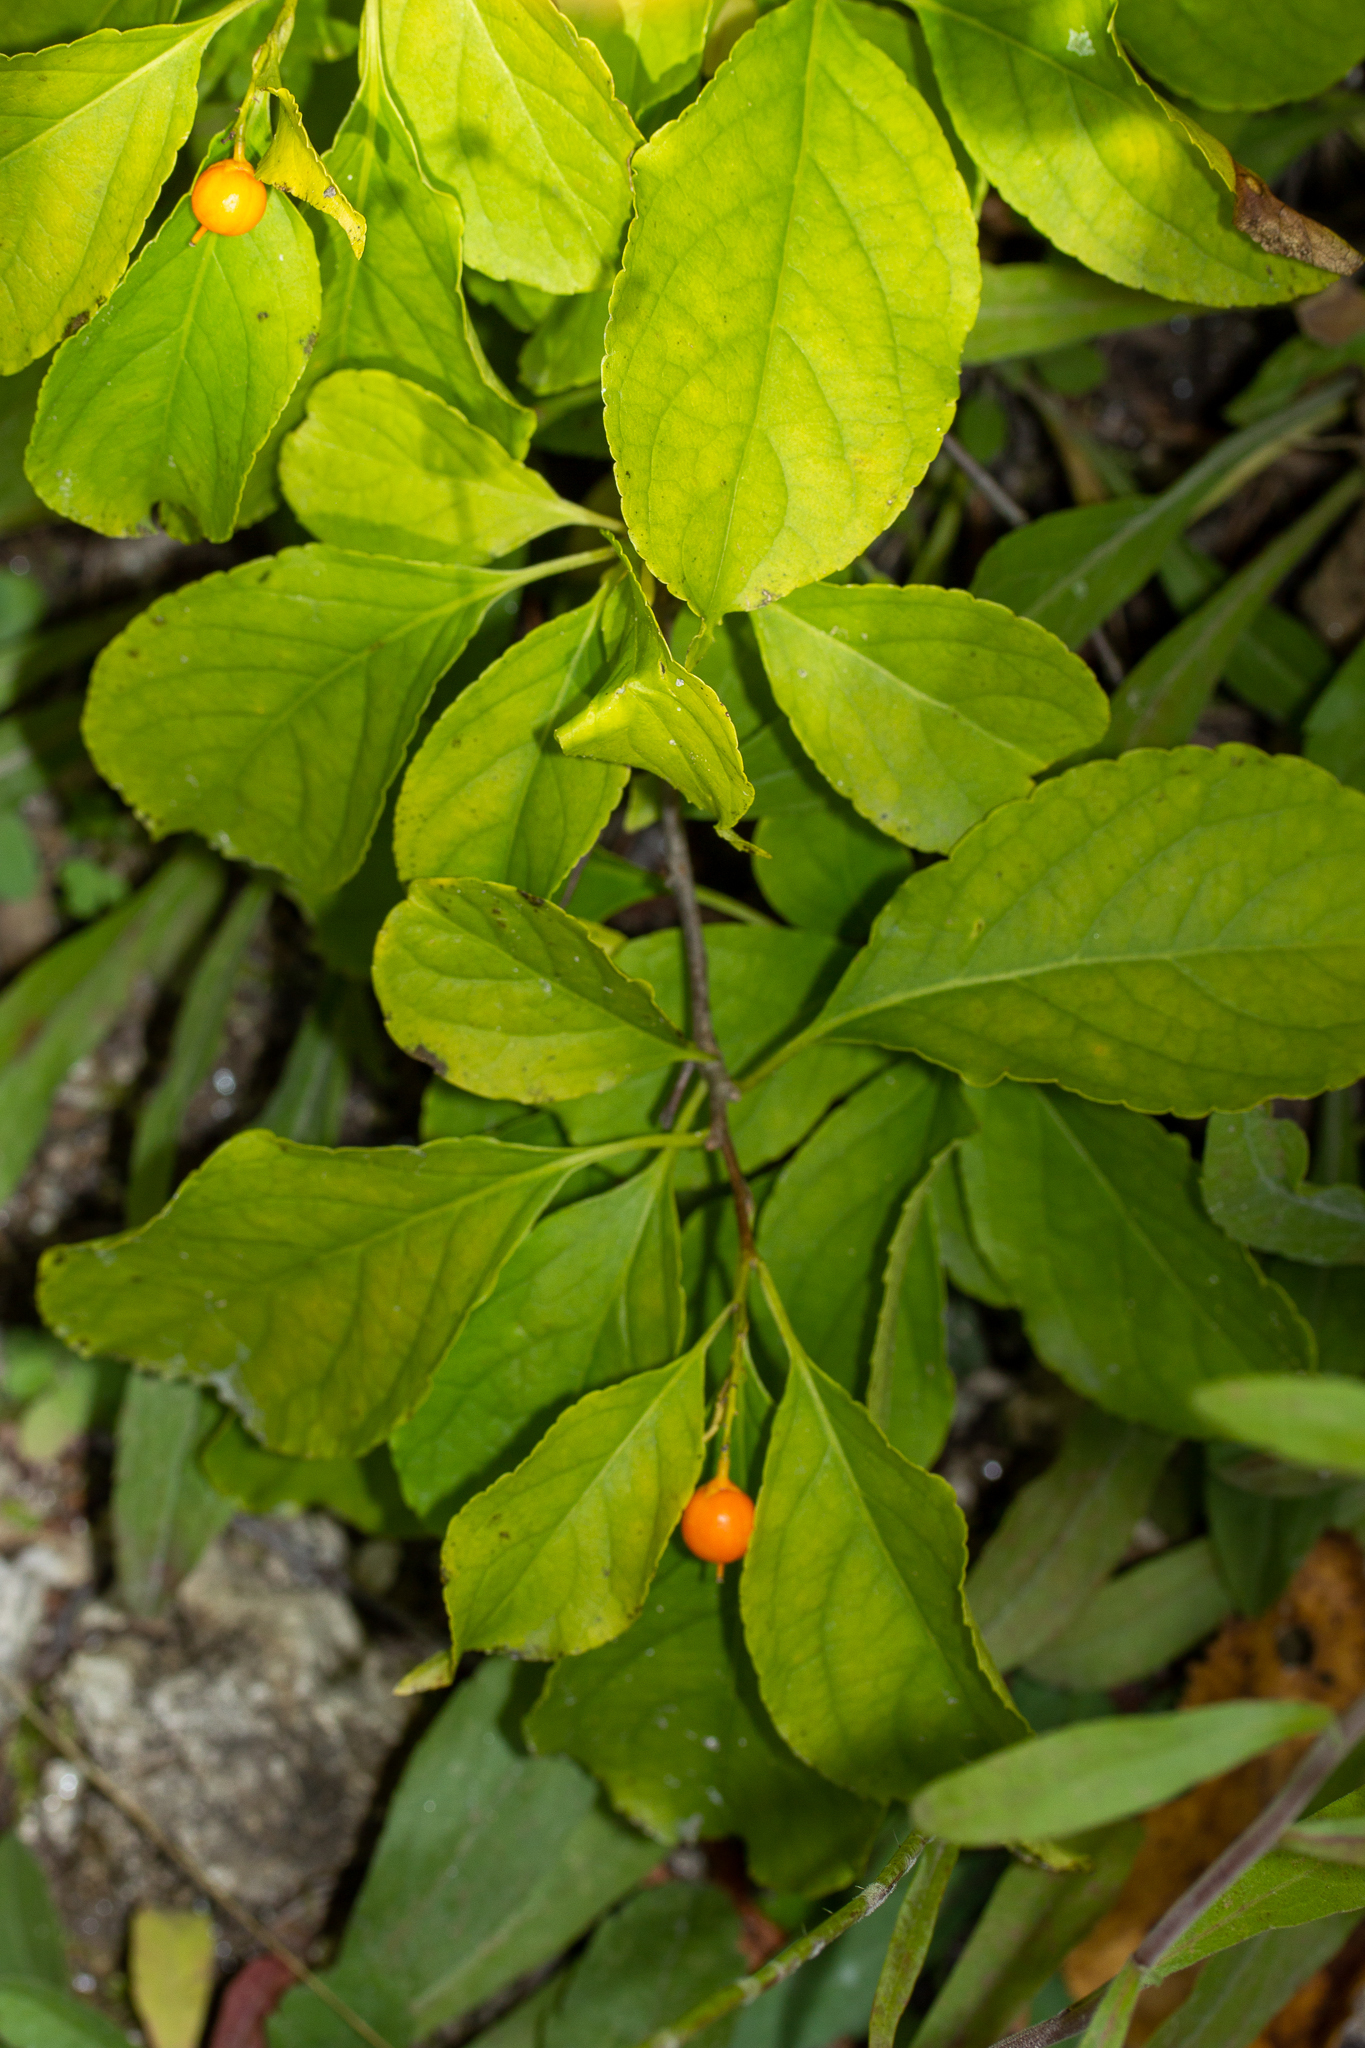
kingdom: Plantae
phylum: Tracheophyta
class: Magnoliopsida
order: Celastrales
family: Celastraceae
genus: Celastrus
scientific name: Celastrus scandens
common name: American bittersweet
